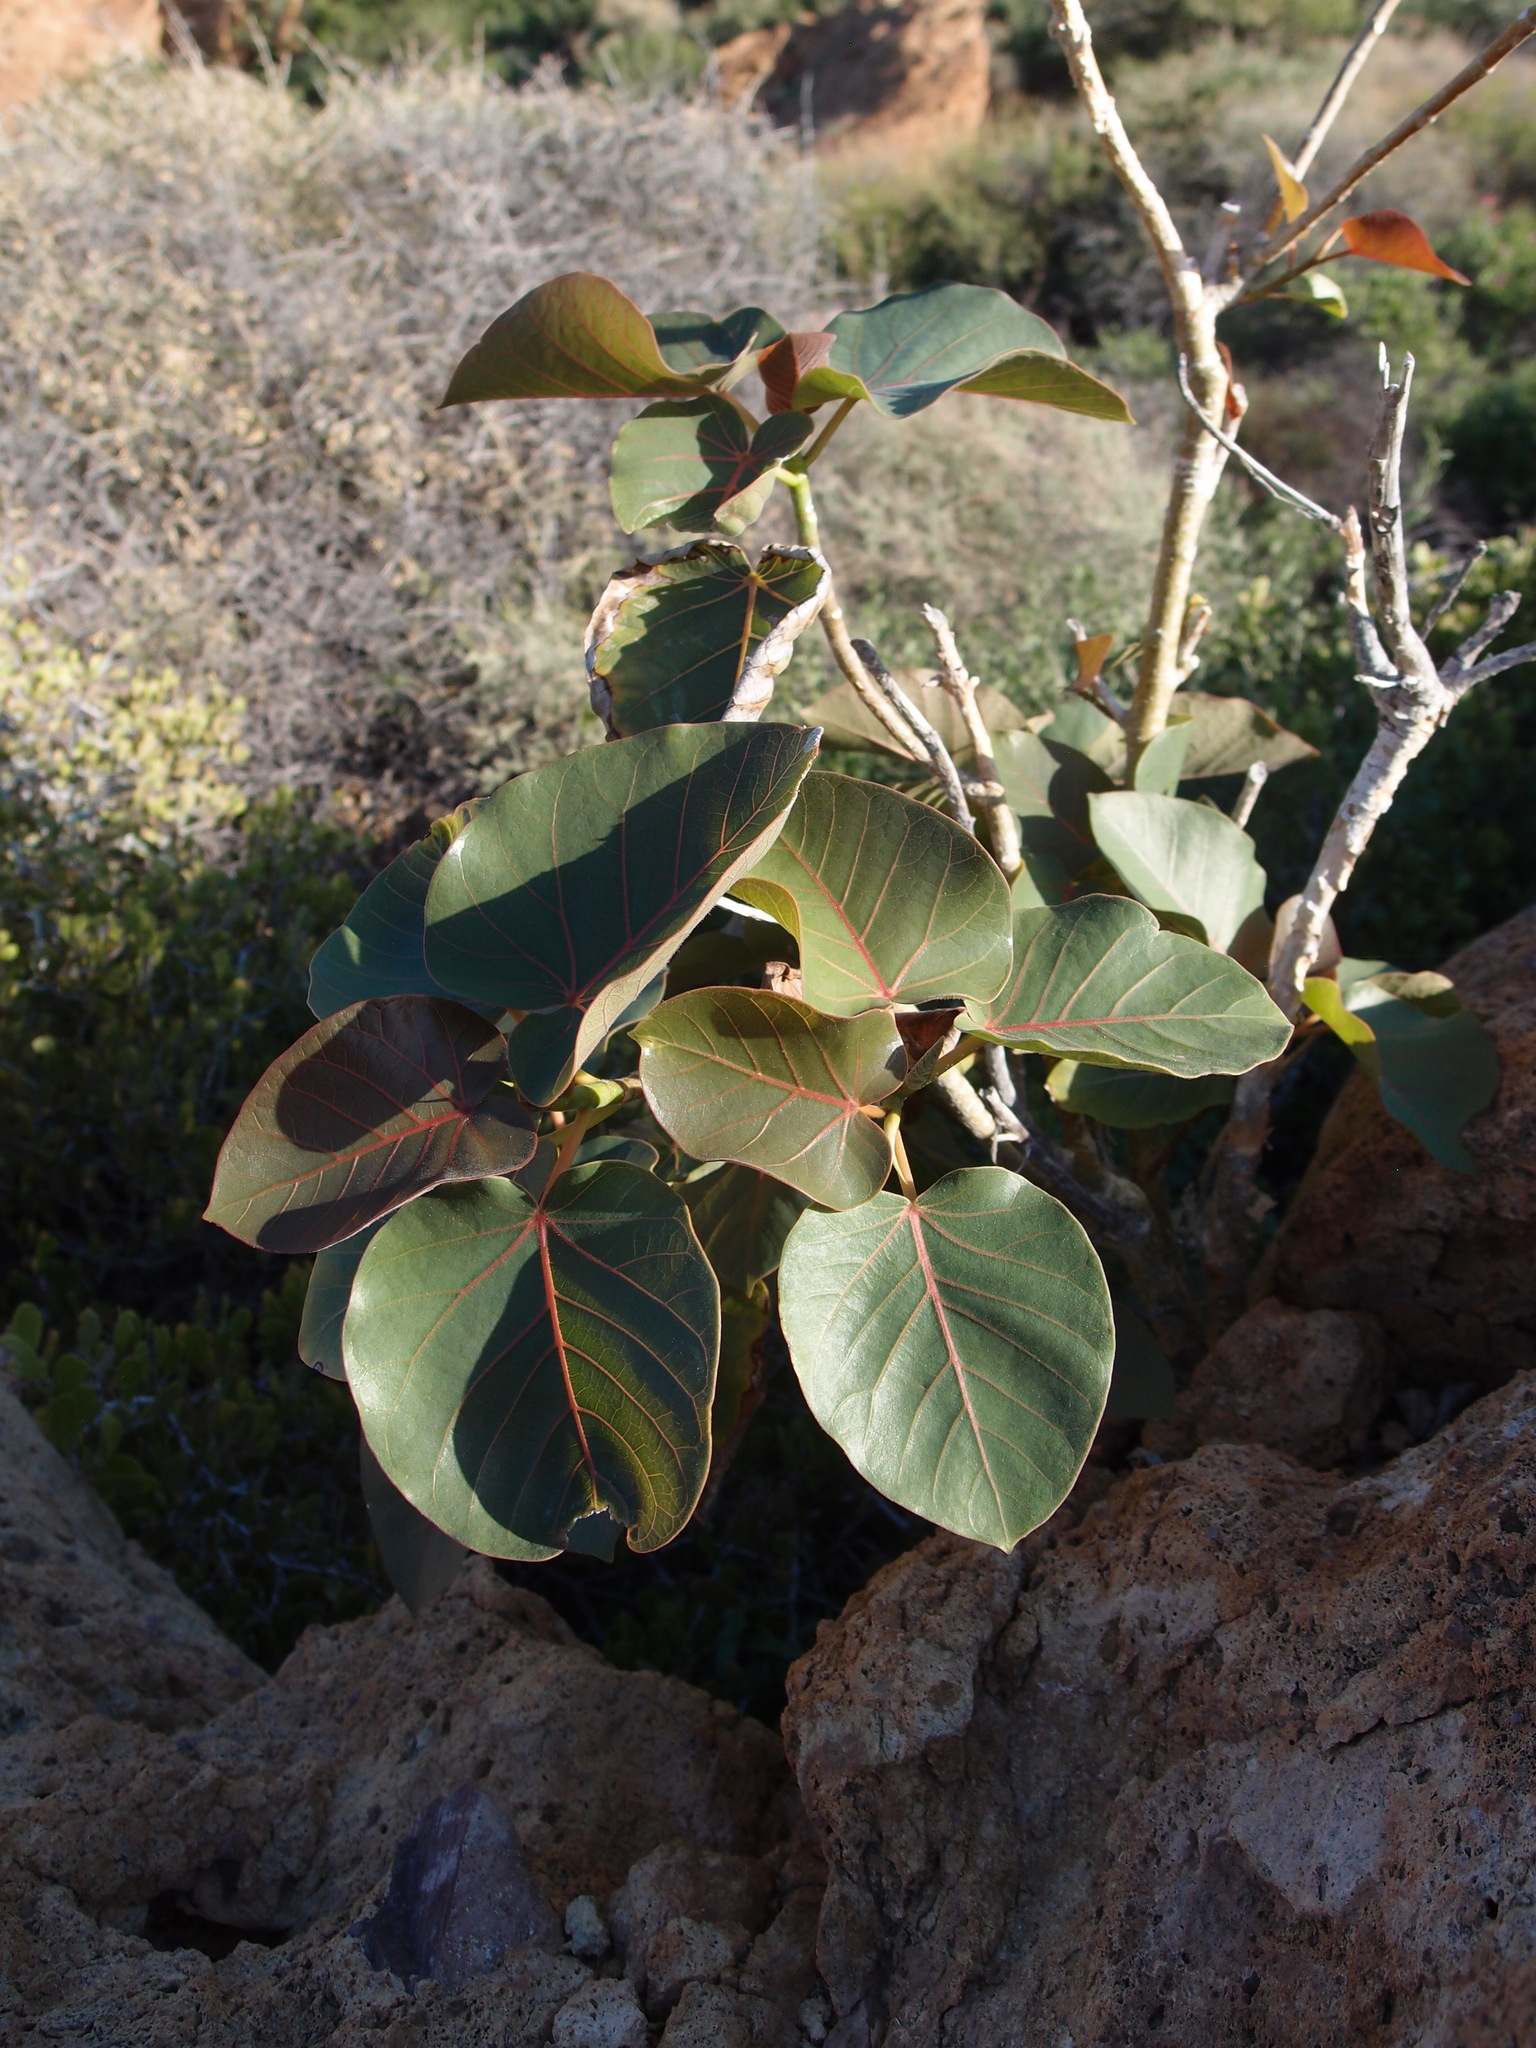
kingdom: Plantae
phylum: Tracheophyta
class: Magnoliopsida
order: Rosales
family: Moraceae
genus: Ficus
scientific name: Ficus petiolaris
